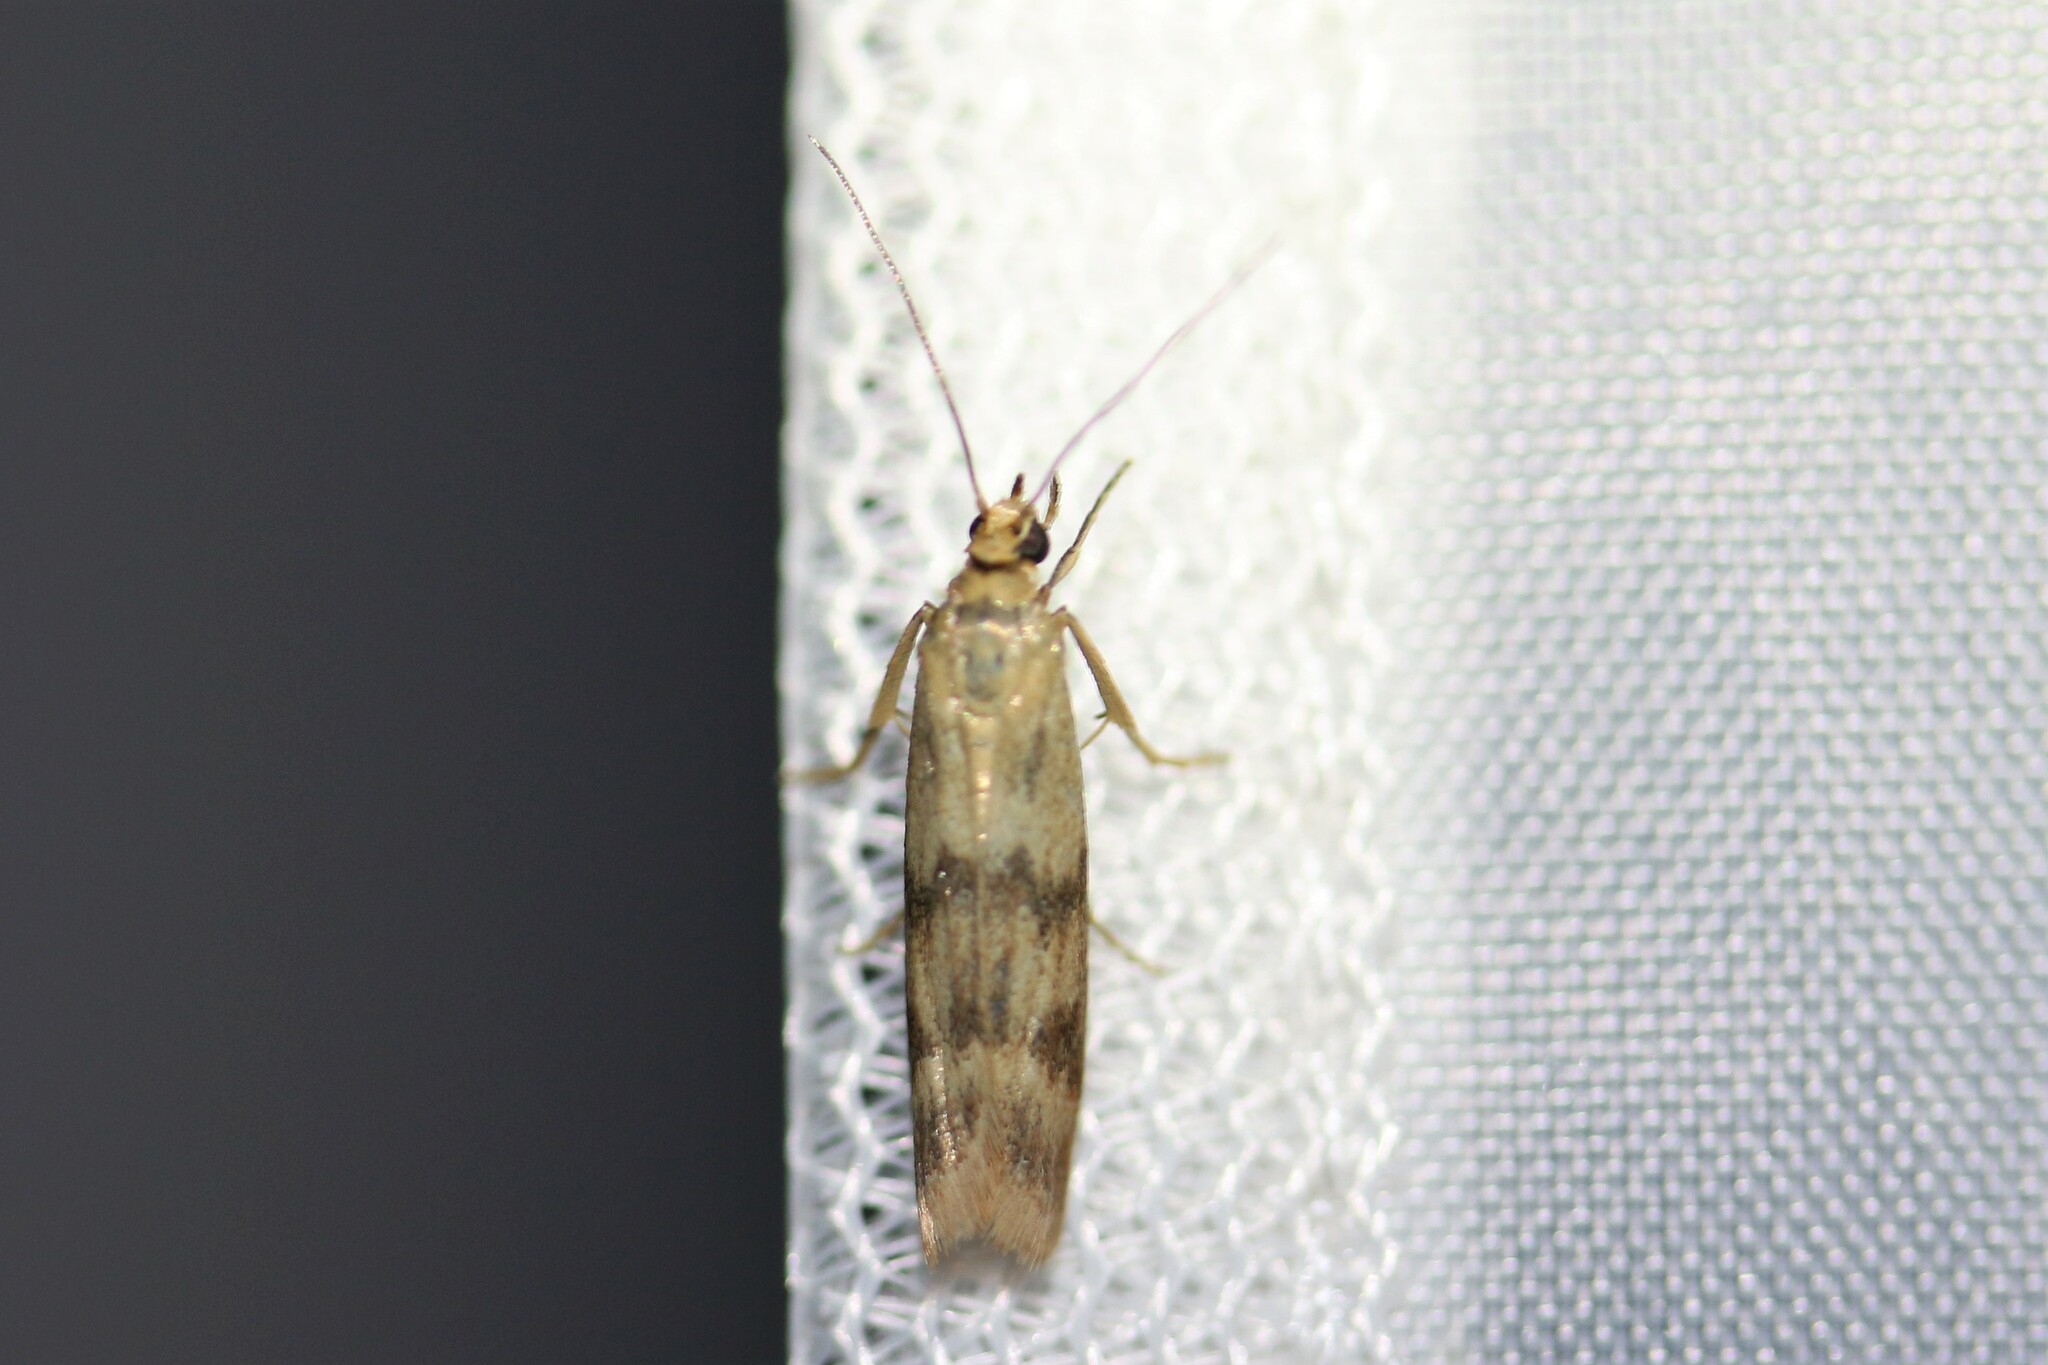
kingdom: Animalia
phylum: Arthropoda
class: Insecta
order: Lepidoptera
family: Pyralidae
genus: Homoeosoma
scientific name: Homoeosoma sinuella
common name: Twin-barred knot-horn
